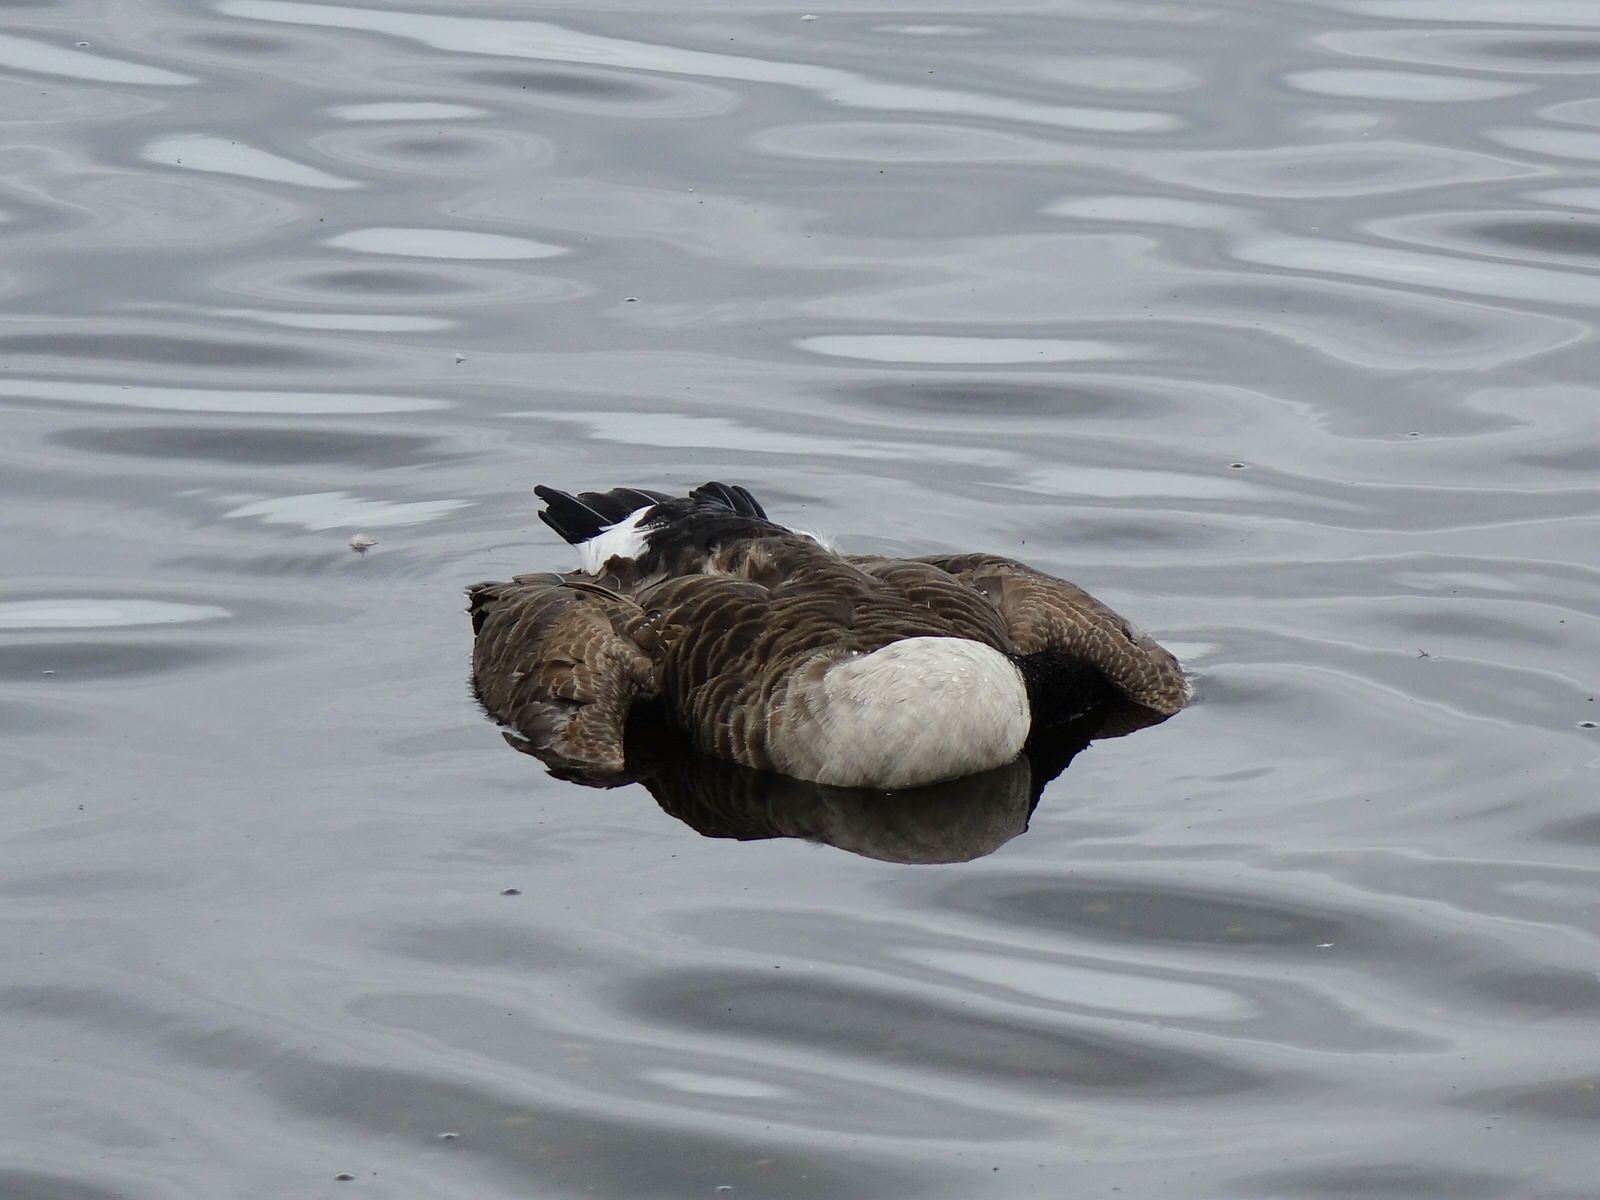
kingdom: Animalia
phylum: Chordata
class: Aves
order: Anseriformes
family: Anatidae
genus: Branta
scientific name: Branta canadensis
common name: Canada goose
